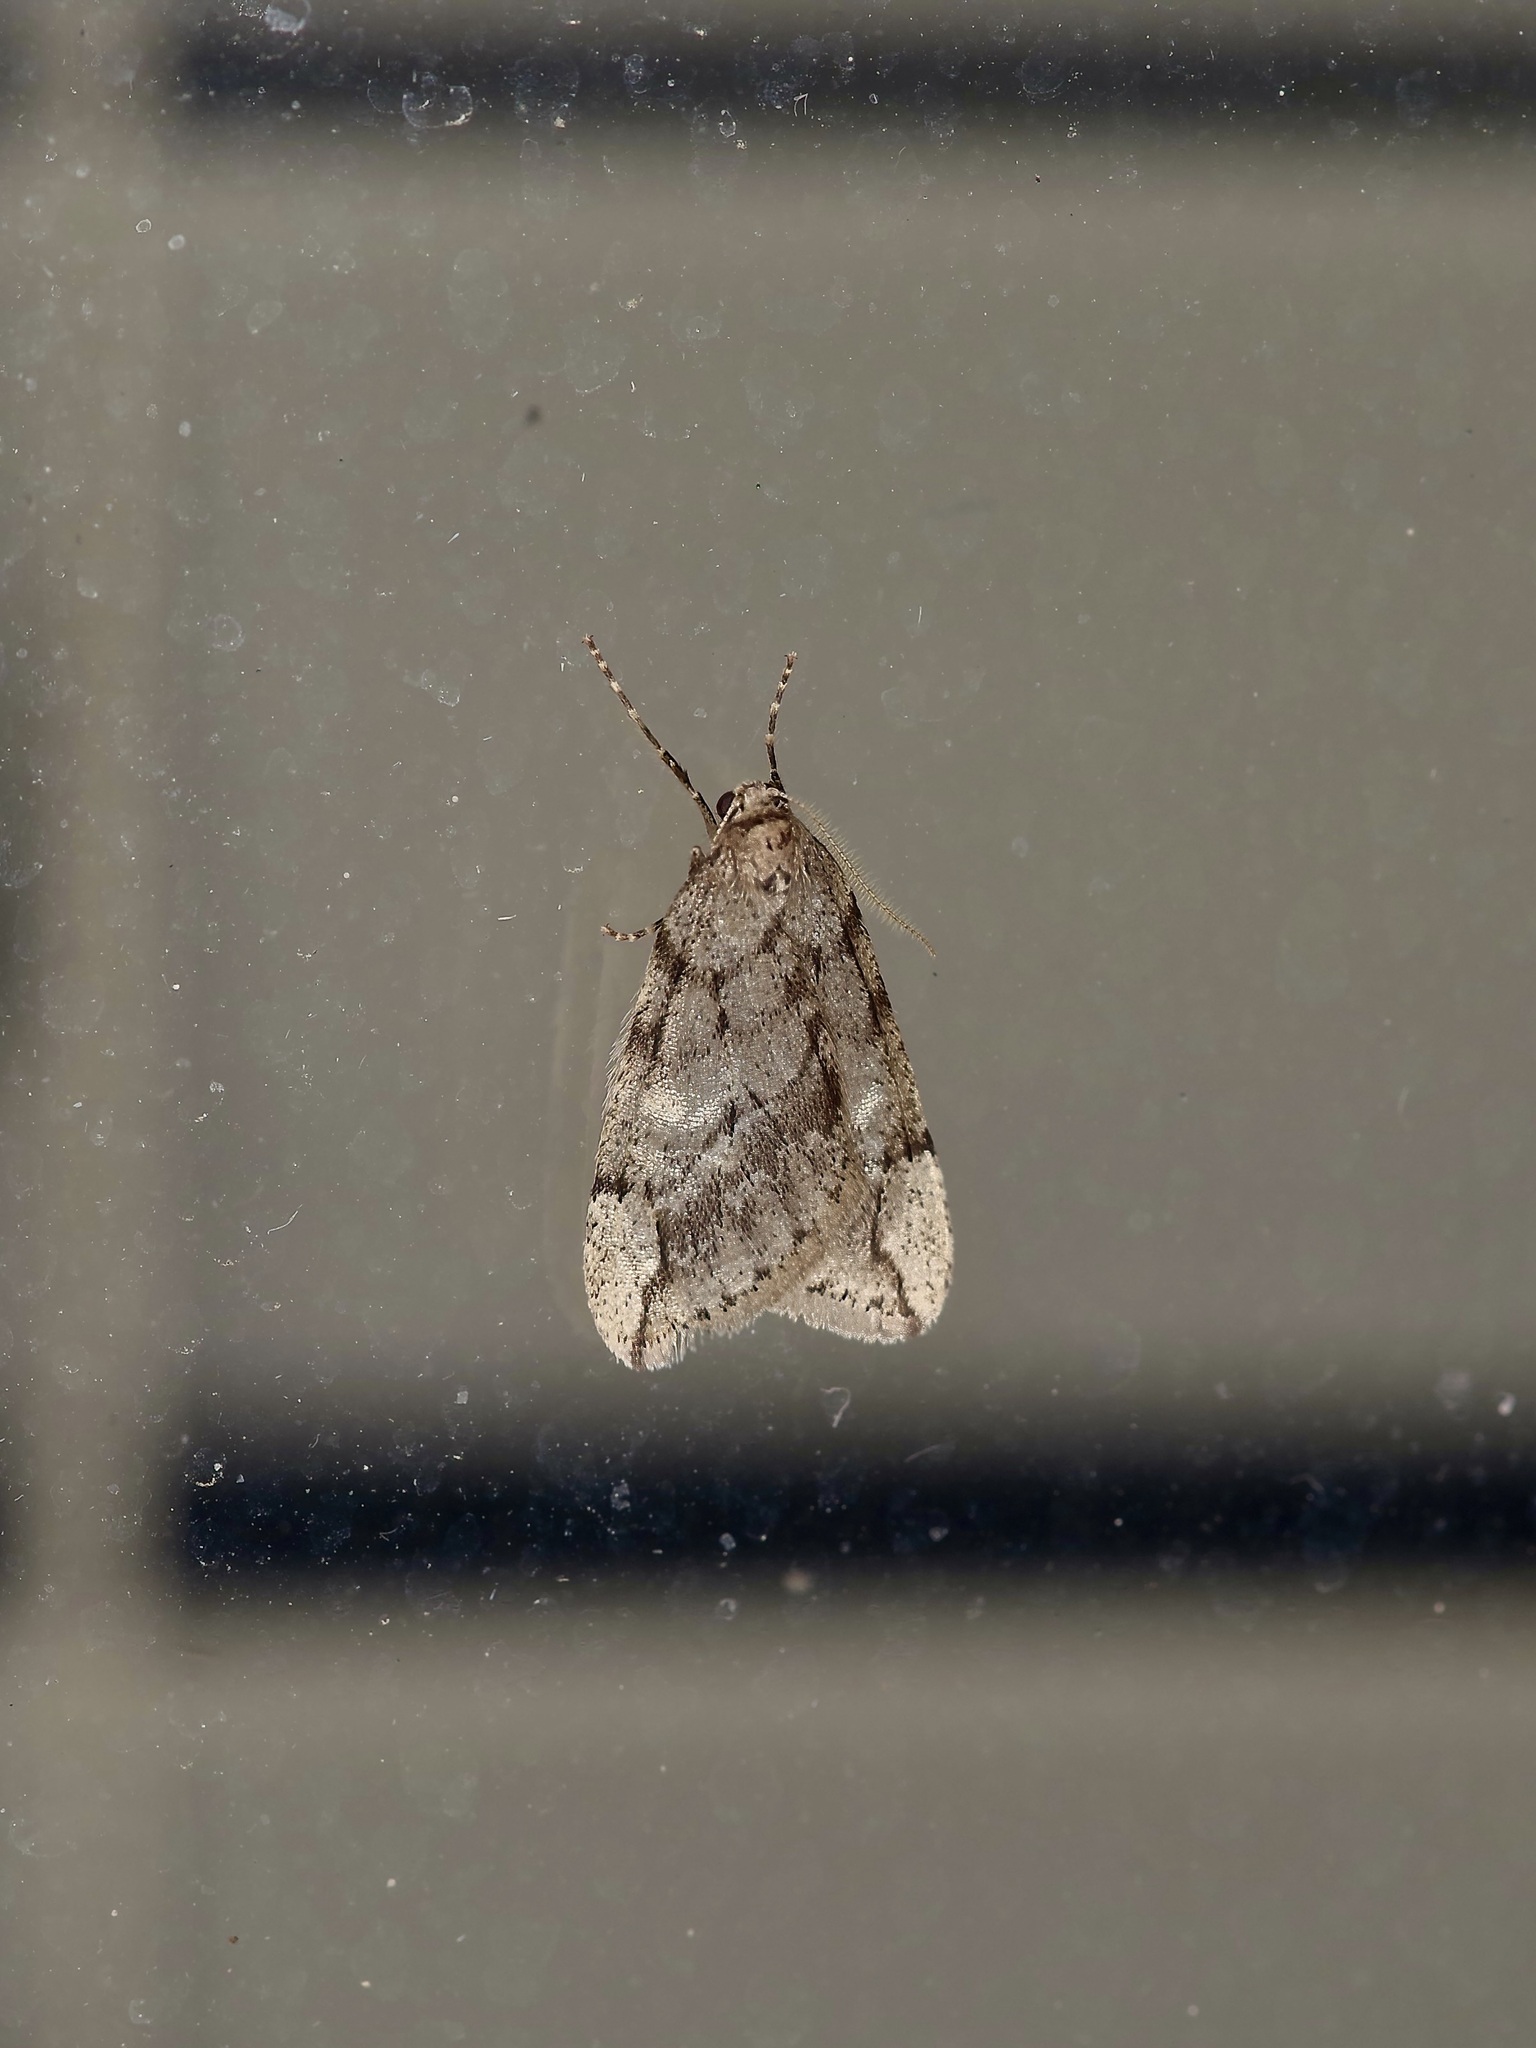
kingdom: Animalia
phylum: Arthropoda
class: Insecta
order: Lepidoptera
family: Geometridae
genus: Paleacrita
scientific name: Paleacrita vernata
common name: Spring cankerworm
